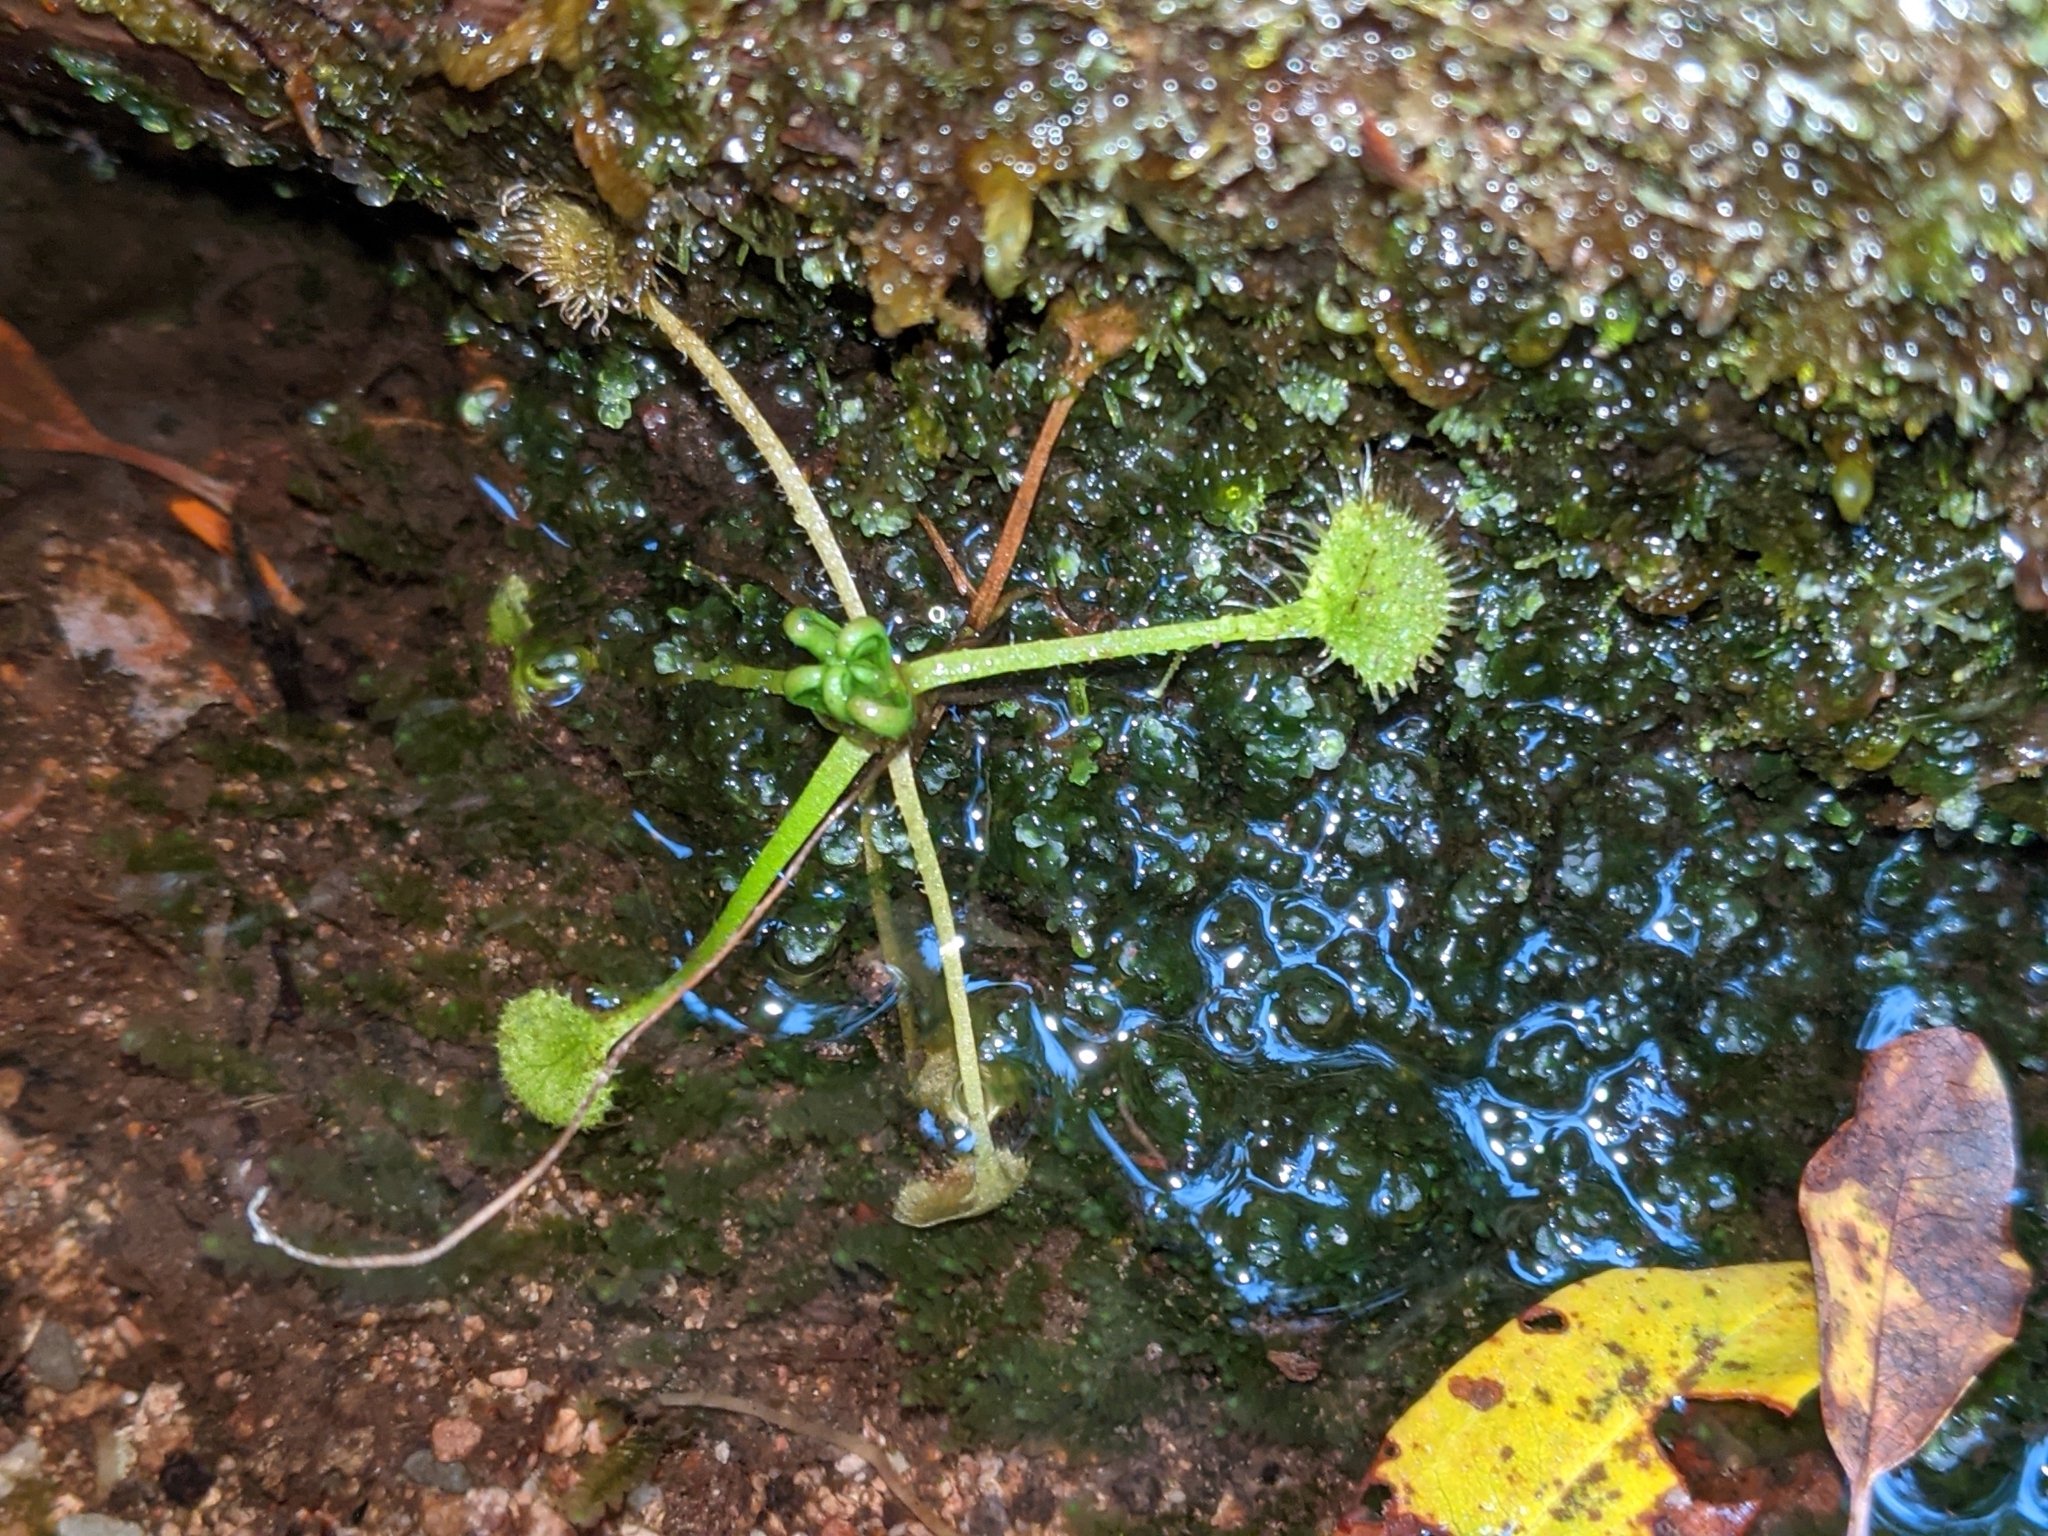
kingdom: Plantae
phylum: Tracheophyta
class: Magnoliopsida
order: Caryophyllales
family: Droseraceae
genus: Drosera
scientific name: Drosera rotundifolia
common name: Round-leaved sundew
